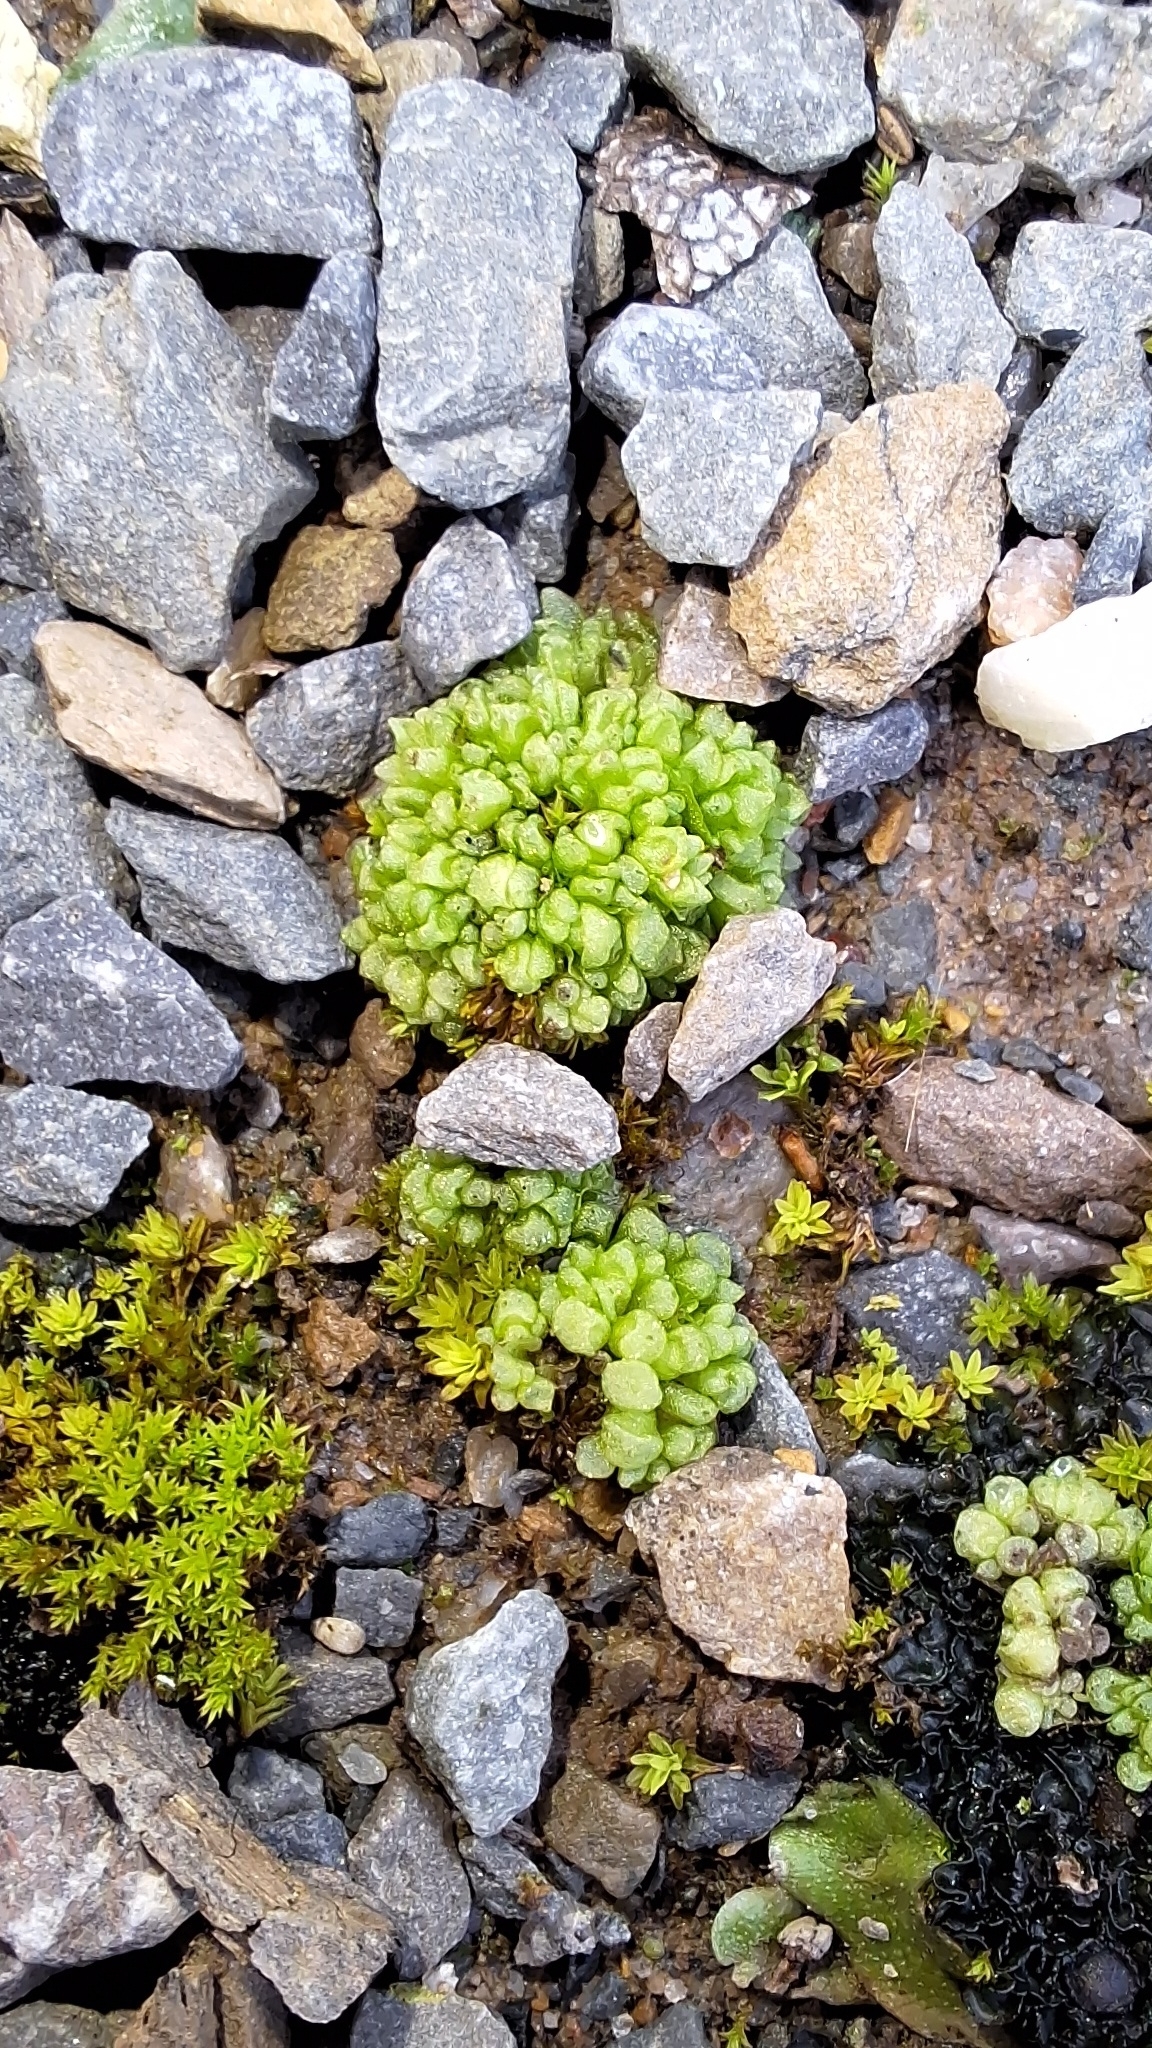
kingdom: Plantae
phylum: Marchantiophyta
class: Marchantiopsida
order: Sphaerocarpales
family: Sphaerocarpaceae
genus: Sphaerocarpos
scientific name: Sphaerocarpos texanus
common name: Texas balloonwort
